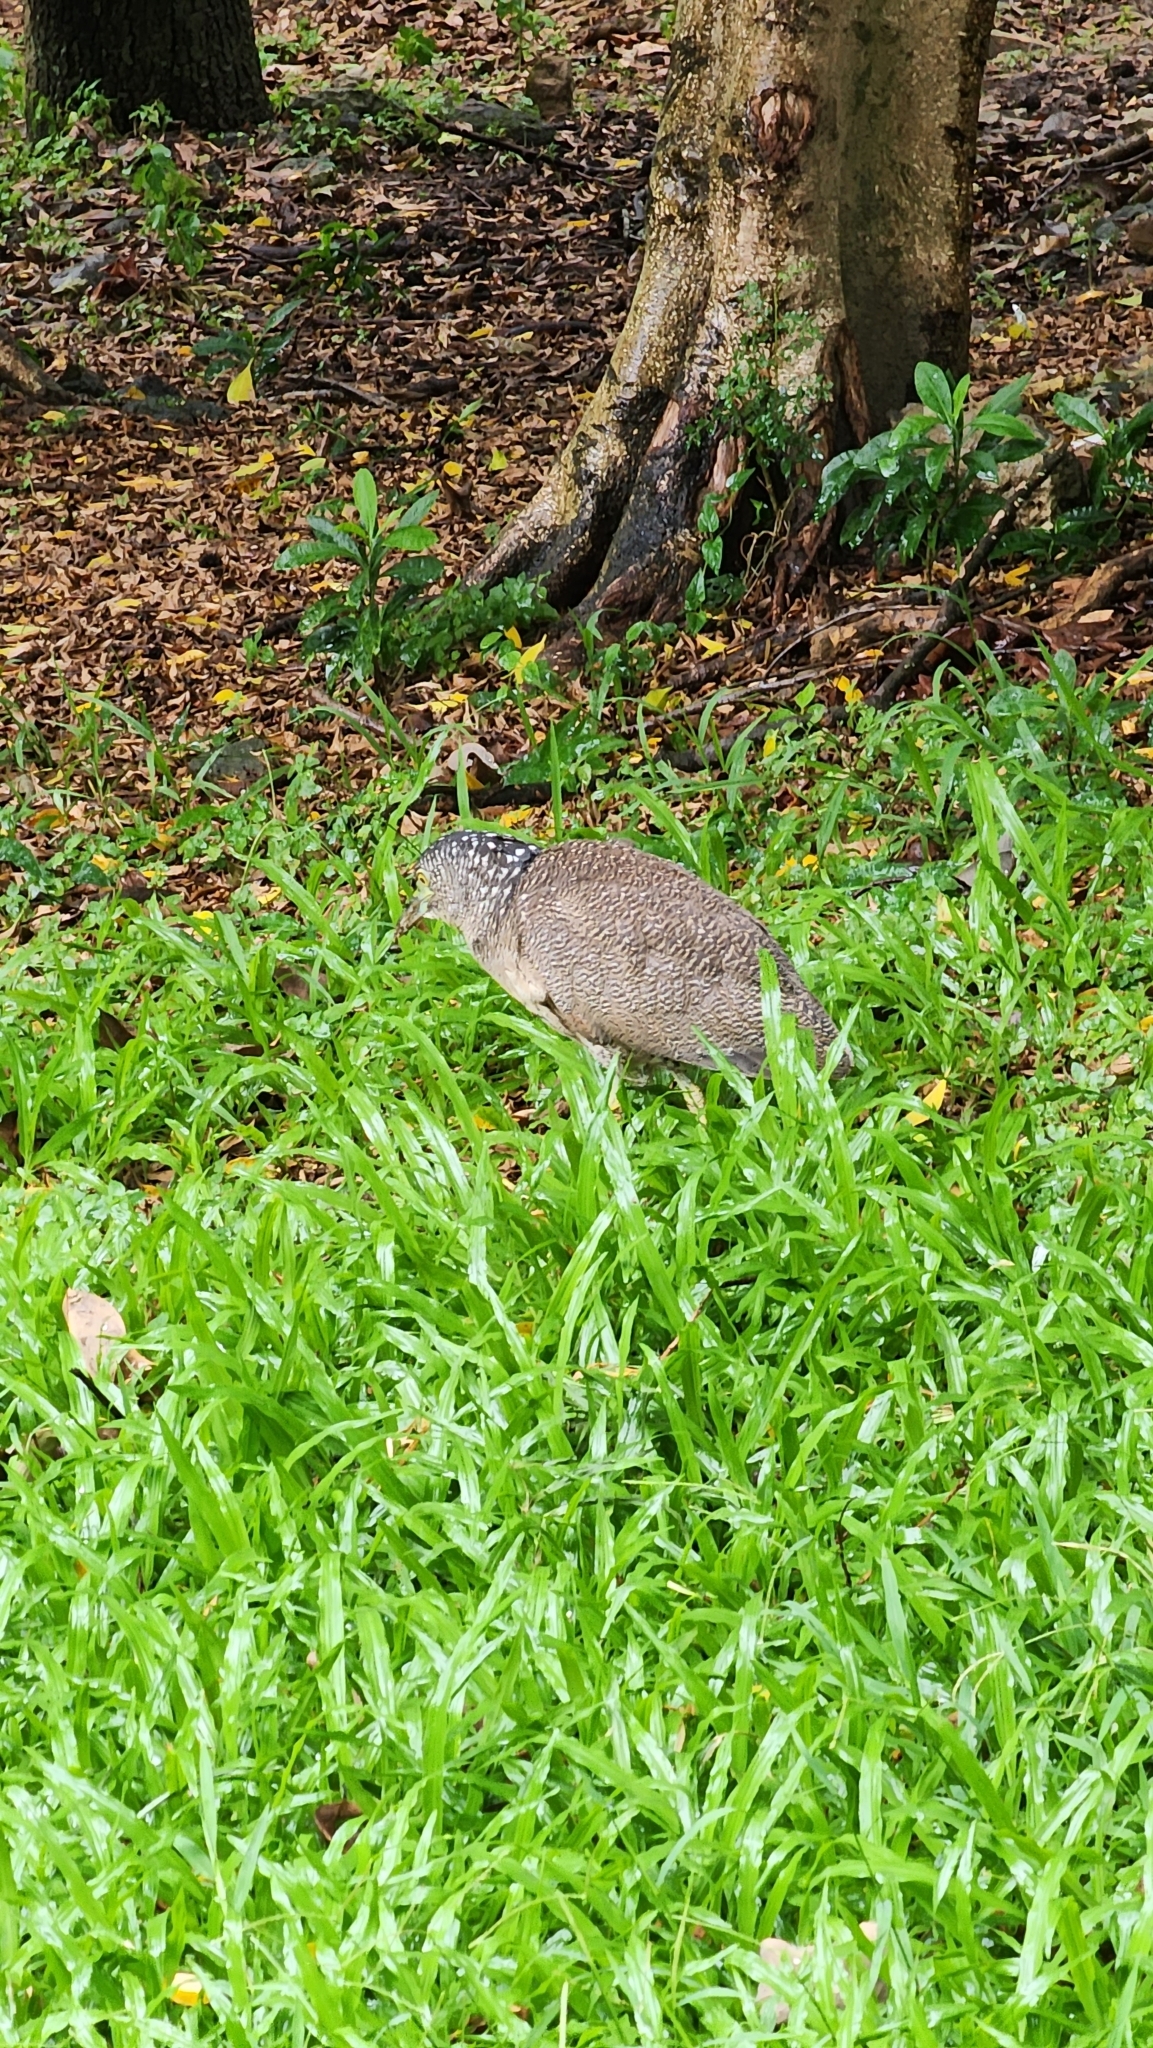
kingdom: Animalia
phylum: Chordata
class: Aves
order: Pelecaniformes
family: Ardeidae
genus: Gorsachius
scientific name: Gorsachius melanolophus
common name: Malayan night heron
